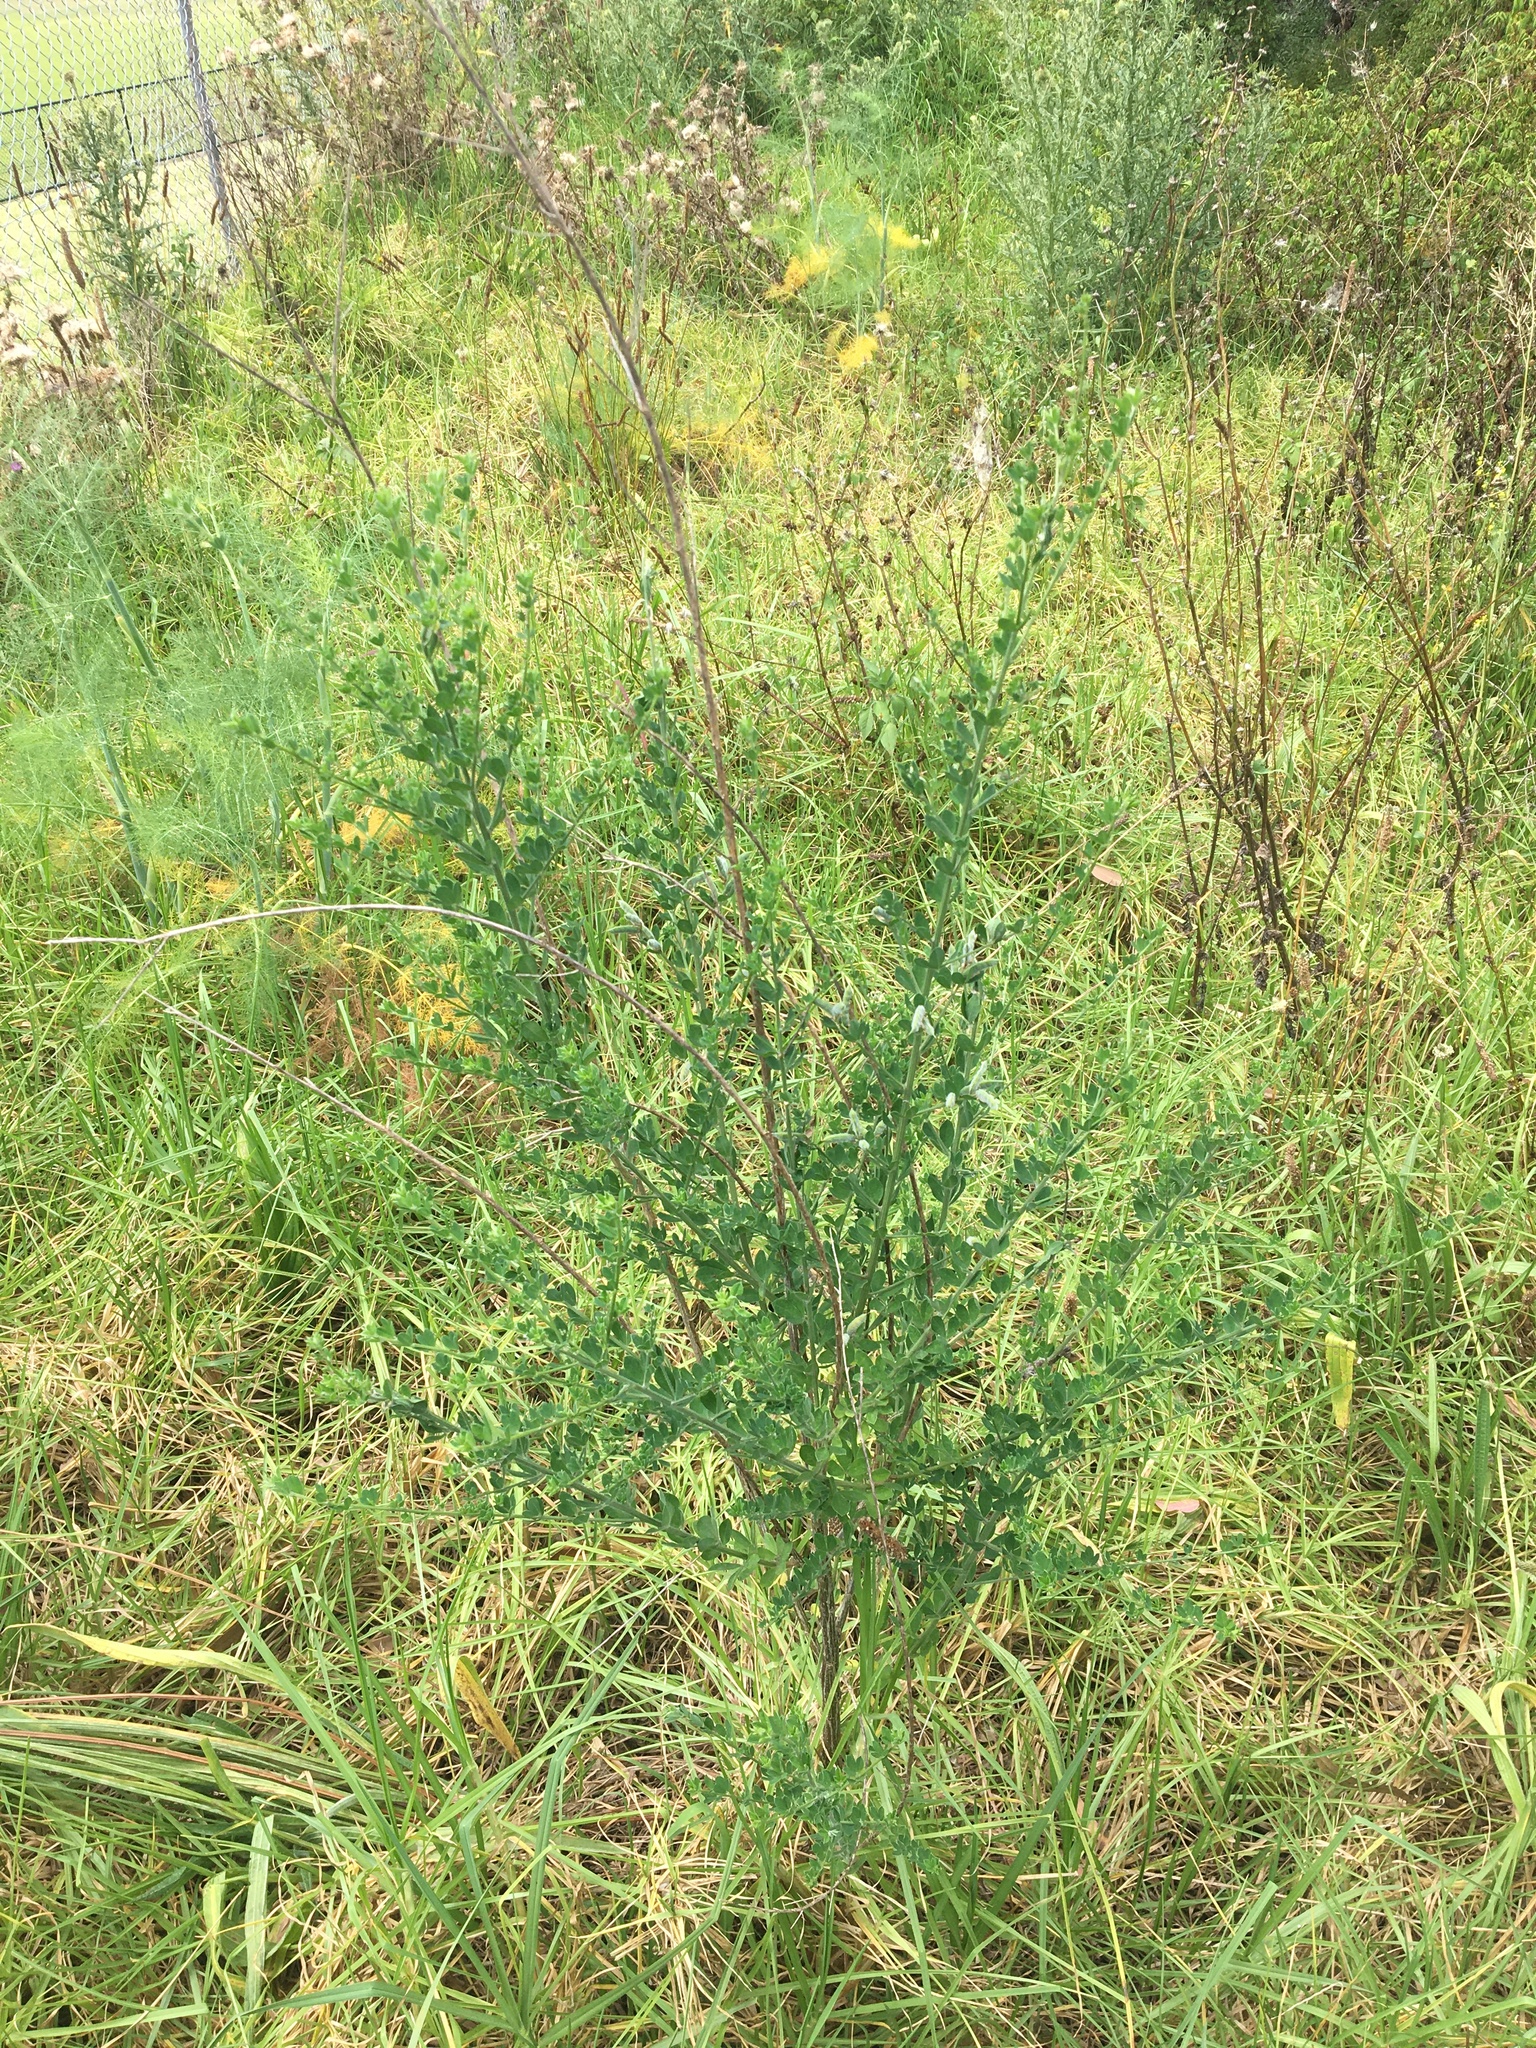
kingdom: Plantae
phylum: Tracheophyta
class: Magnoliopsida
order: Fabales
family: Fabaceae
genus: Genista
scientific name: Genista monspessulana
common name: Montpellier broom
